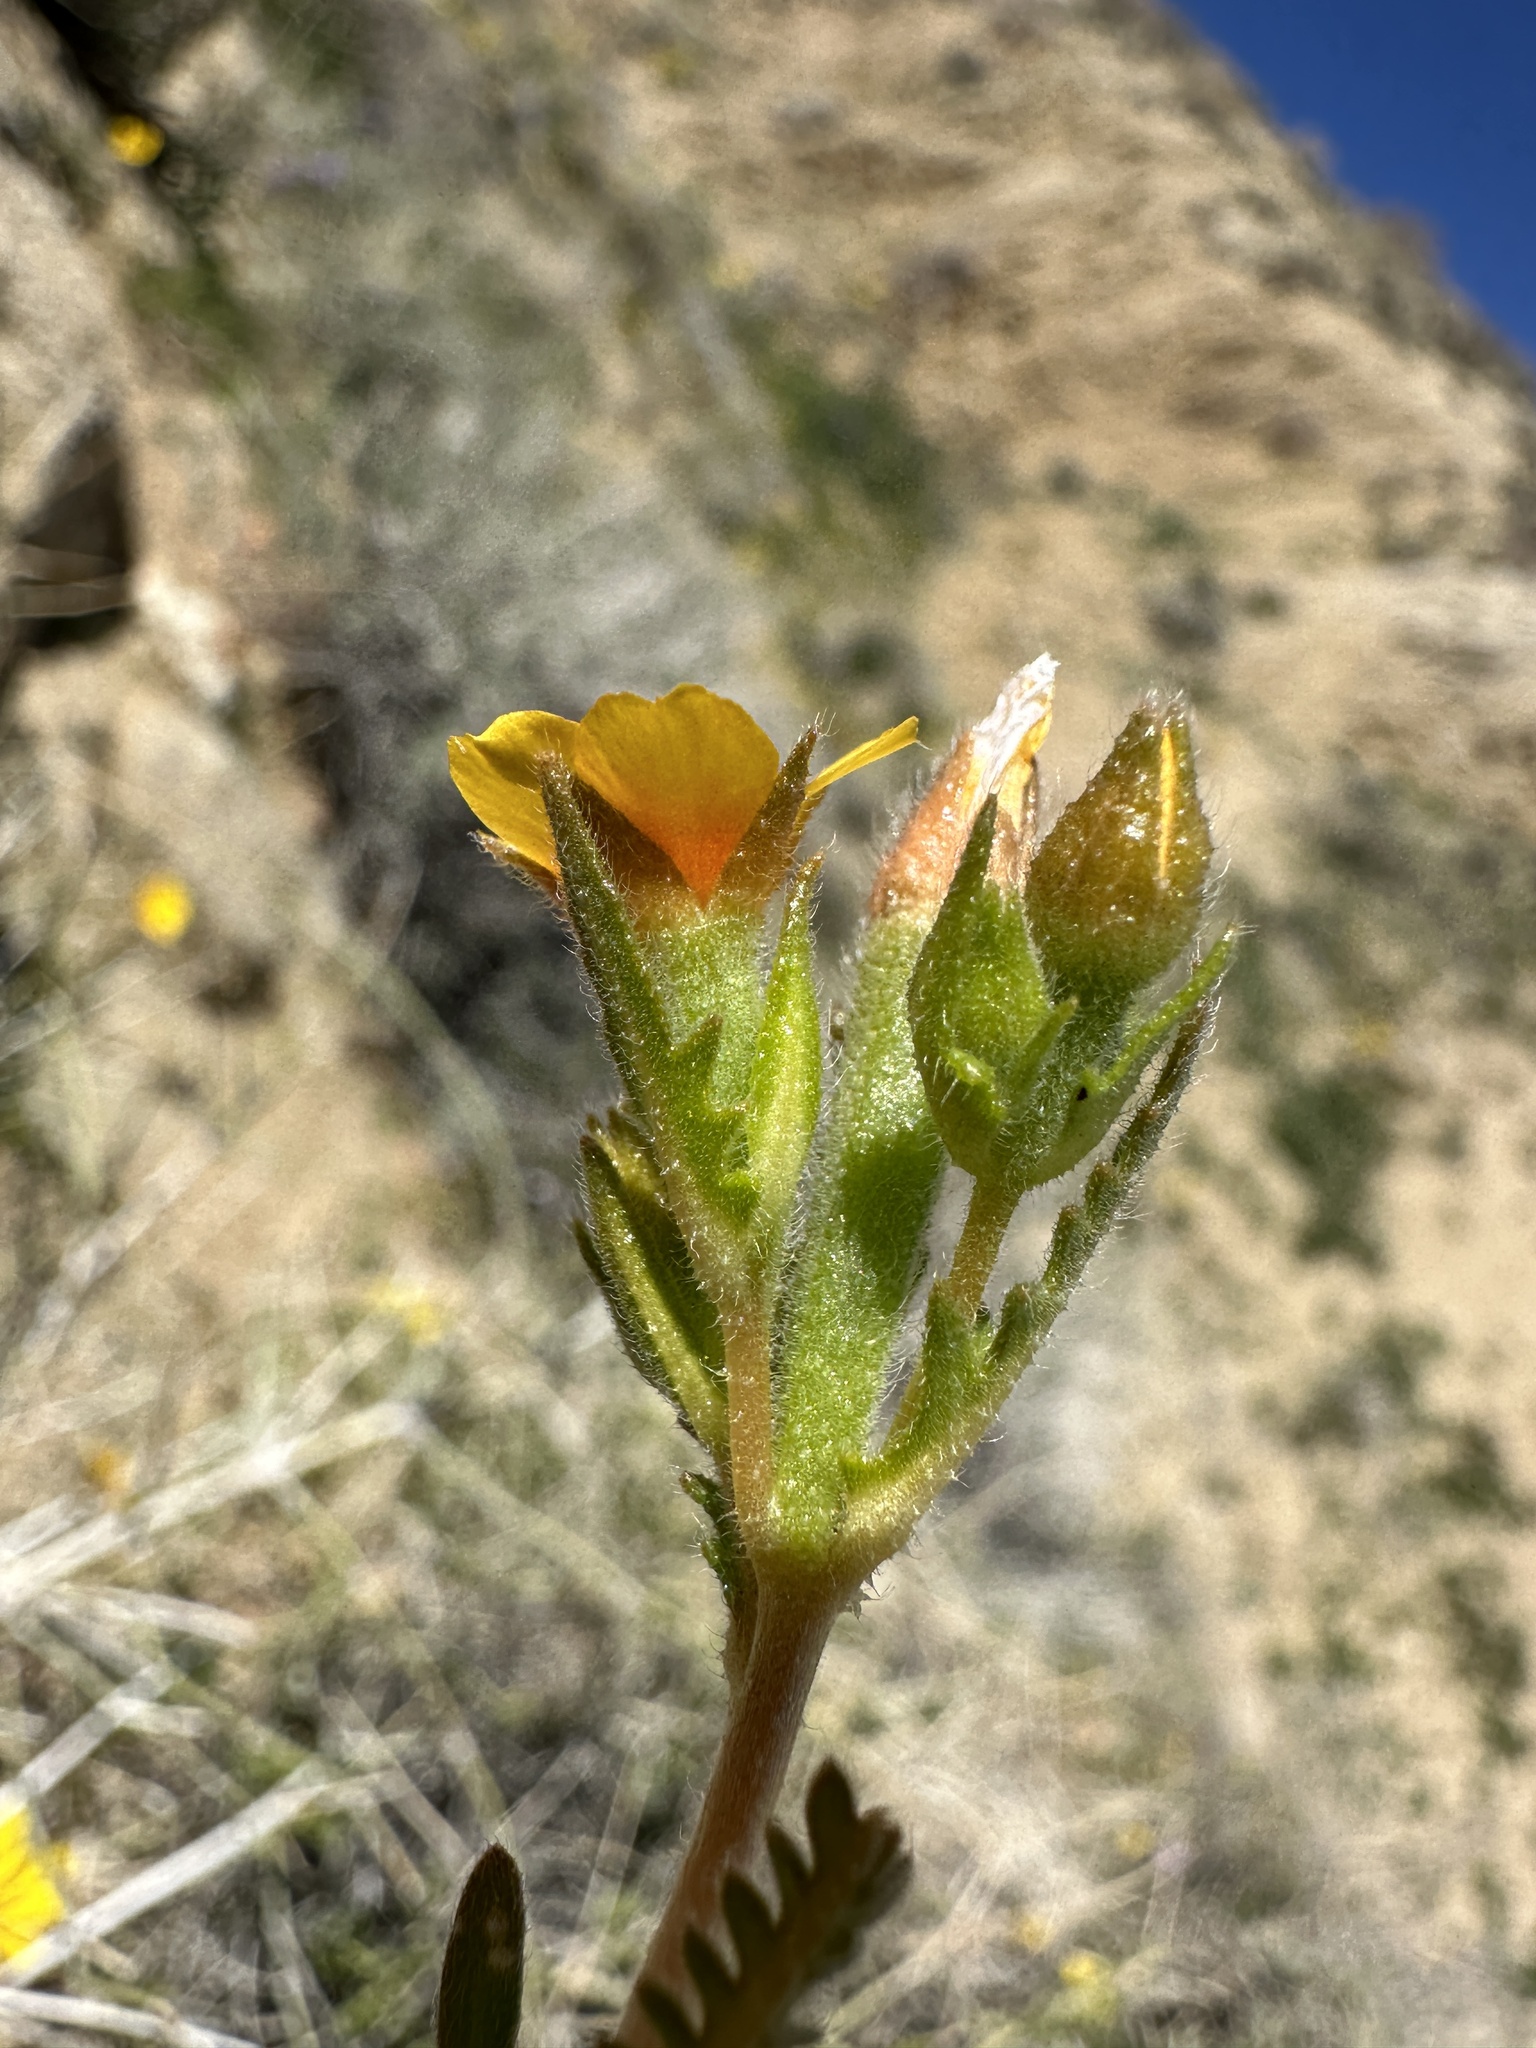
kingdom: Plantae
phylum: Tracheophyta
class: Magnoliopsida
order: Cornales
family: Loasaceae
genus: Mentzelia
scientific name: Mentzelia veatchiana
